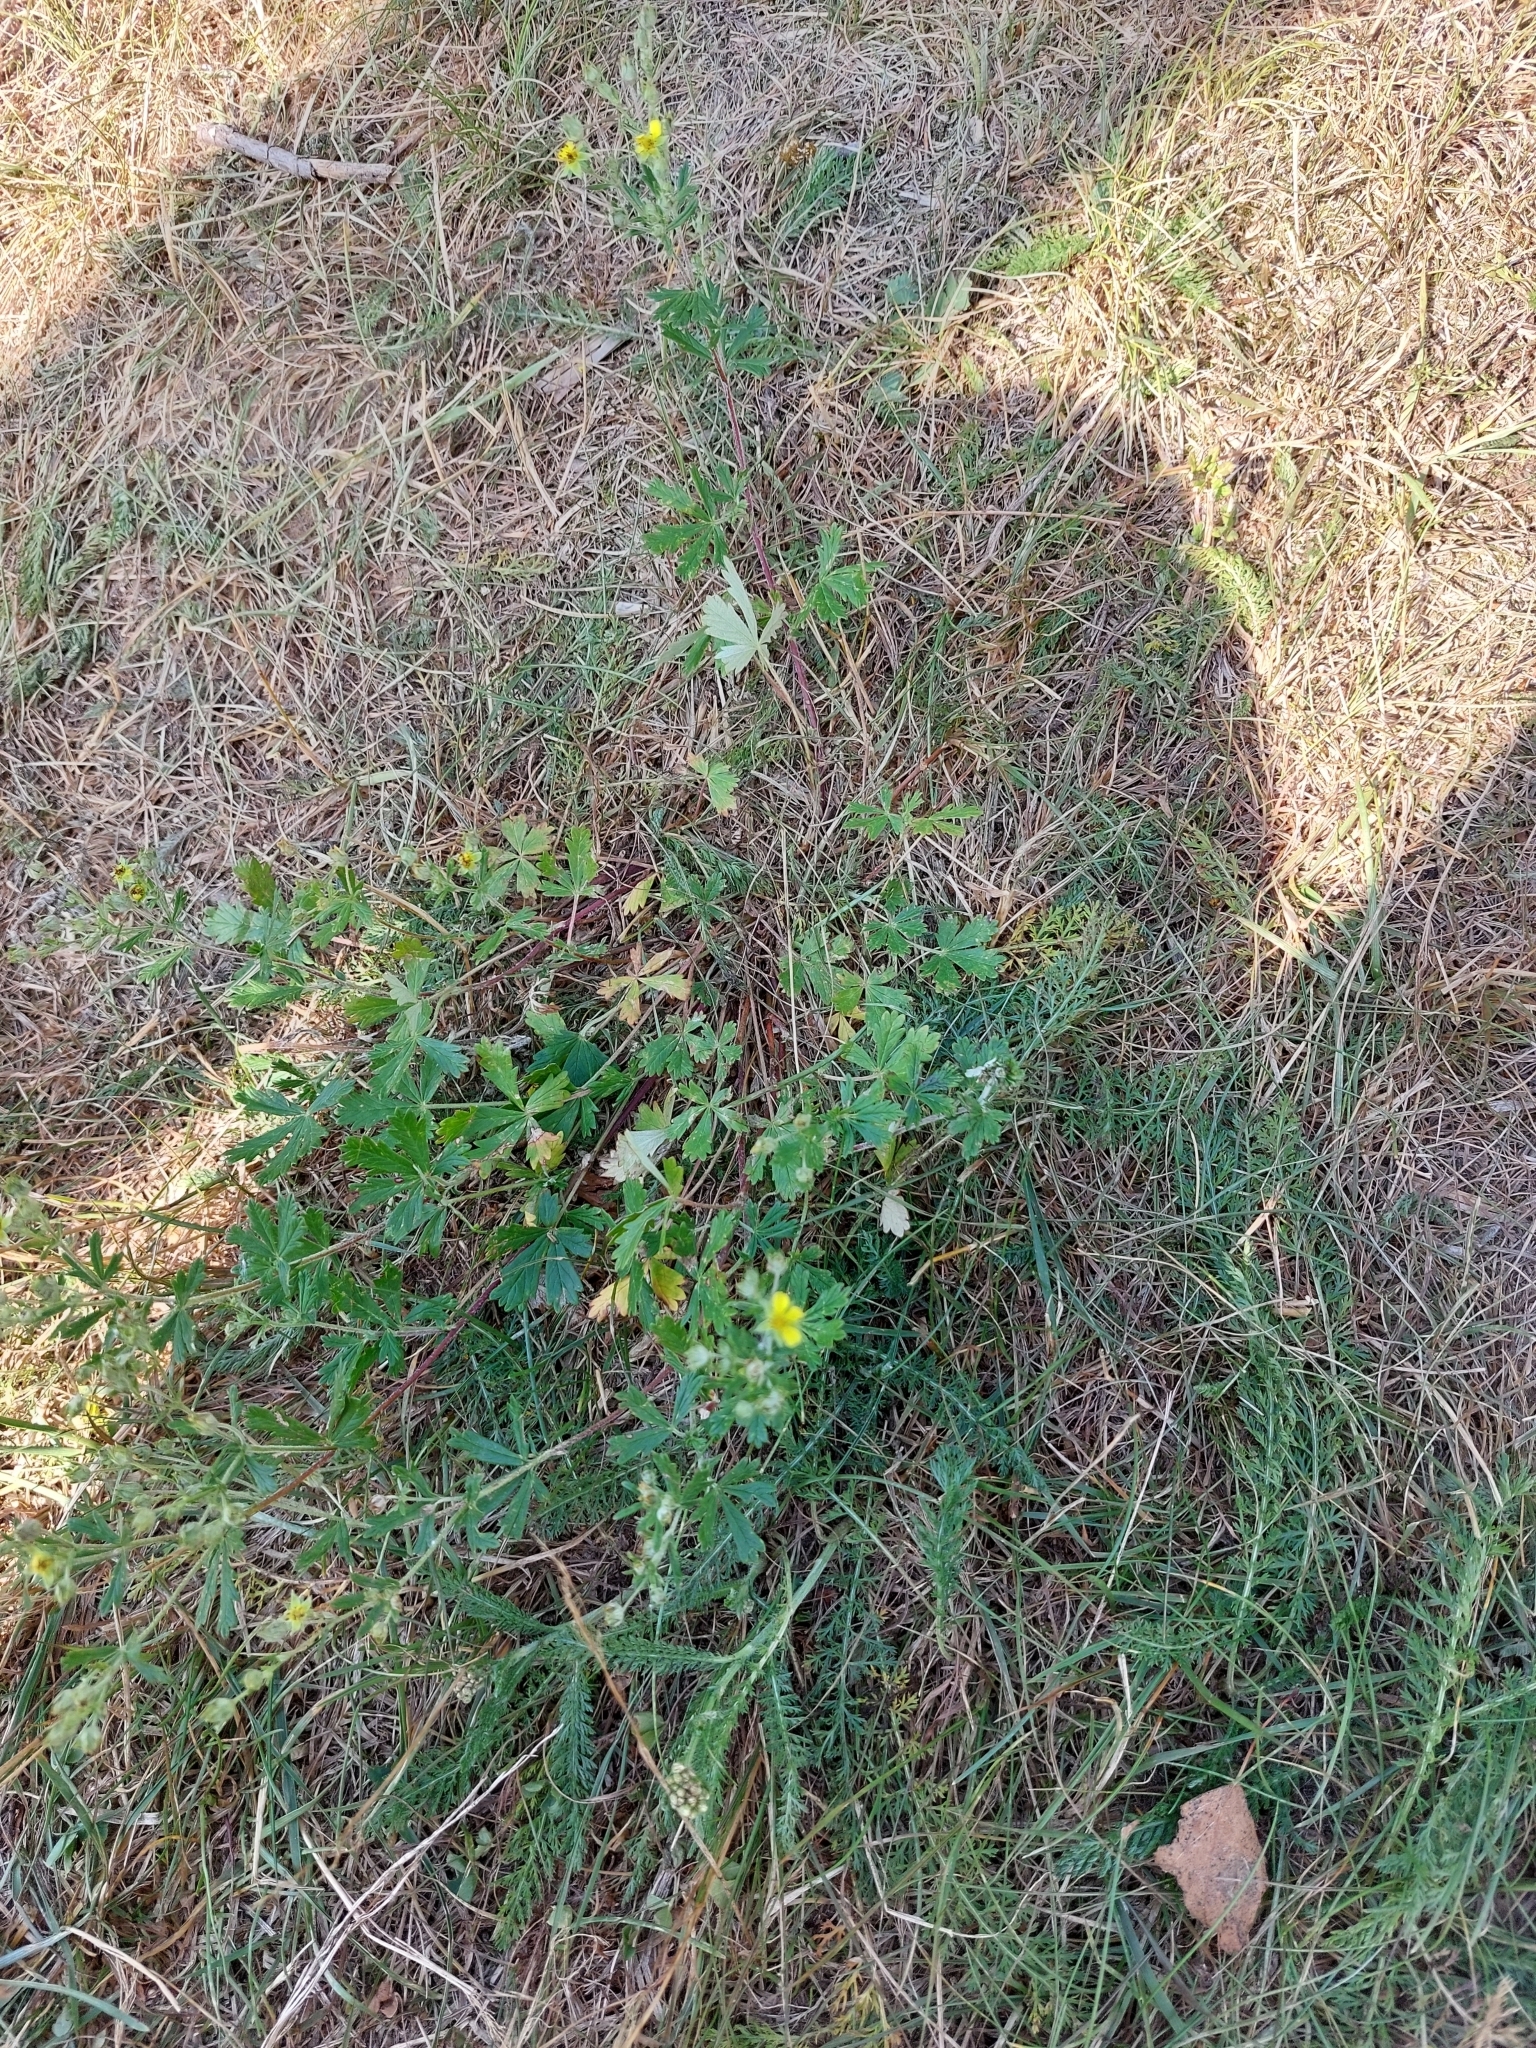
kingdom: Plantae
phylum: Tracheophyta
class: Magnoliopsida
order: Rosales
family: Rosaceae
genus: Potentilla
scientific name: Potentilla argentea
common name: Hoary cinquefoil
